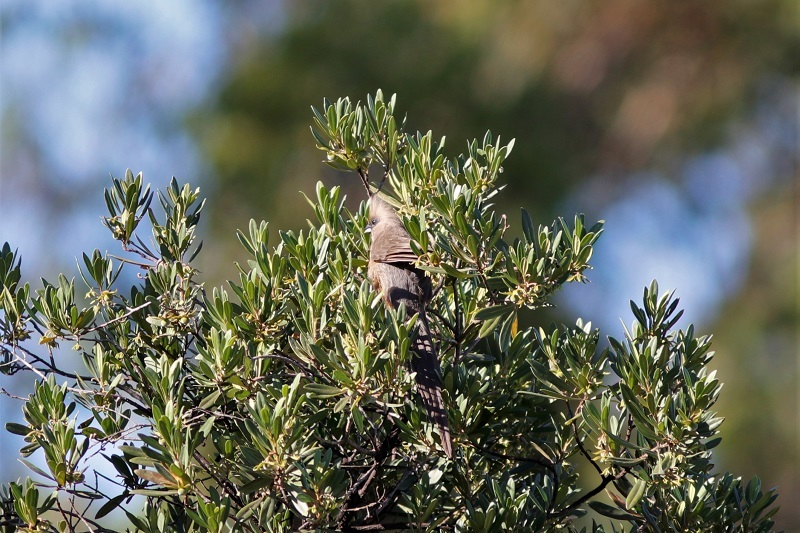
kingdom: Animalia
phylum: Chordata
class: Aves
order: Coliiformes
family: Coliidae
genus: Colius
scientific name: Colius striatus
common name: Speckled mousebird
